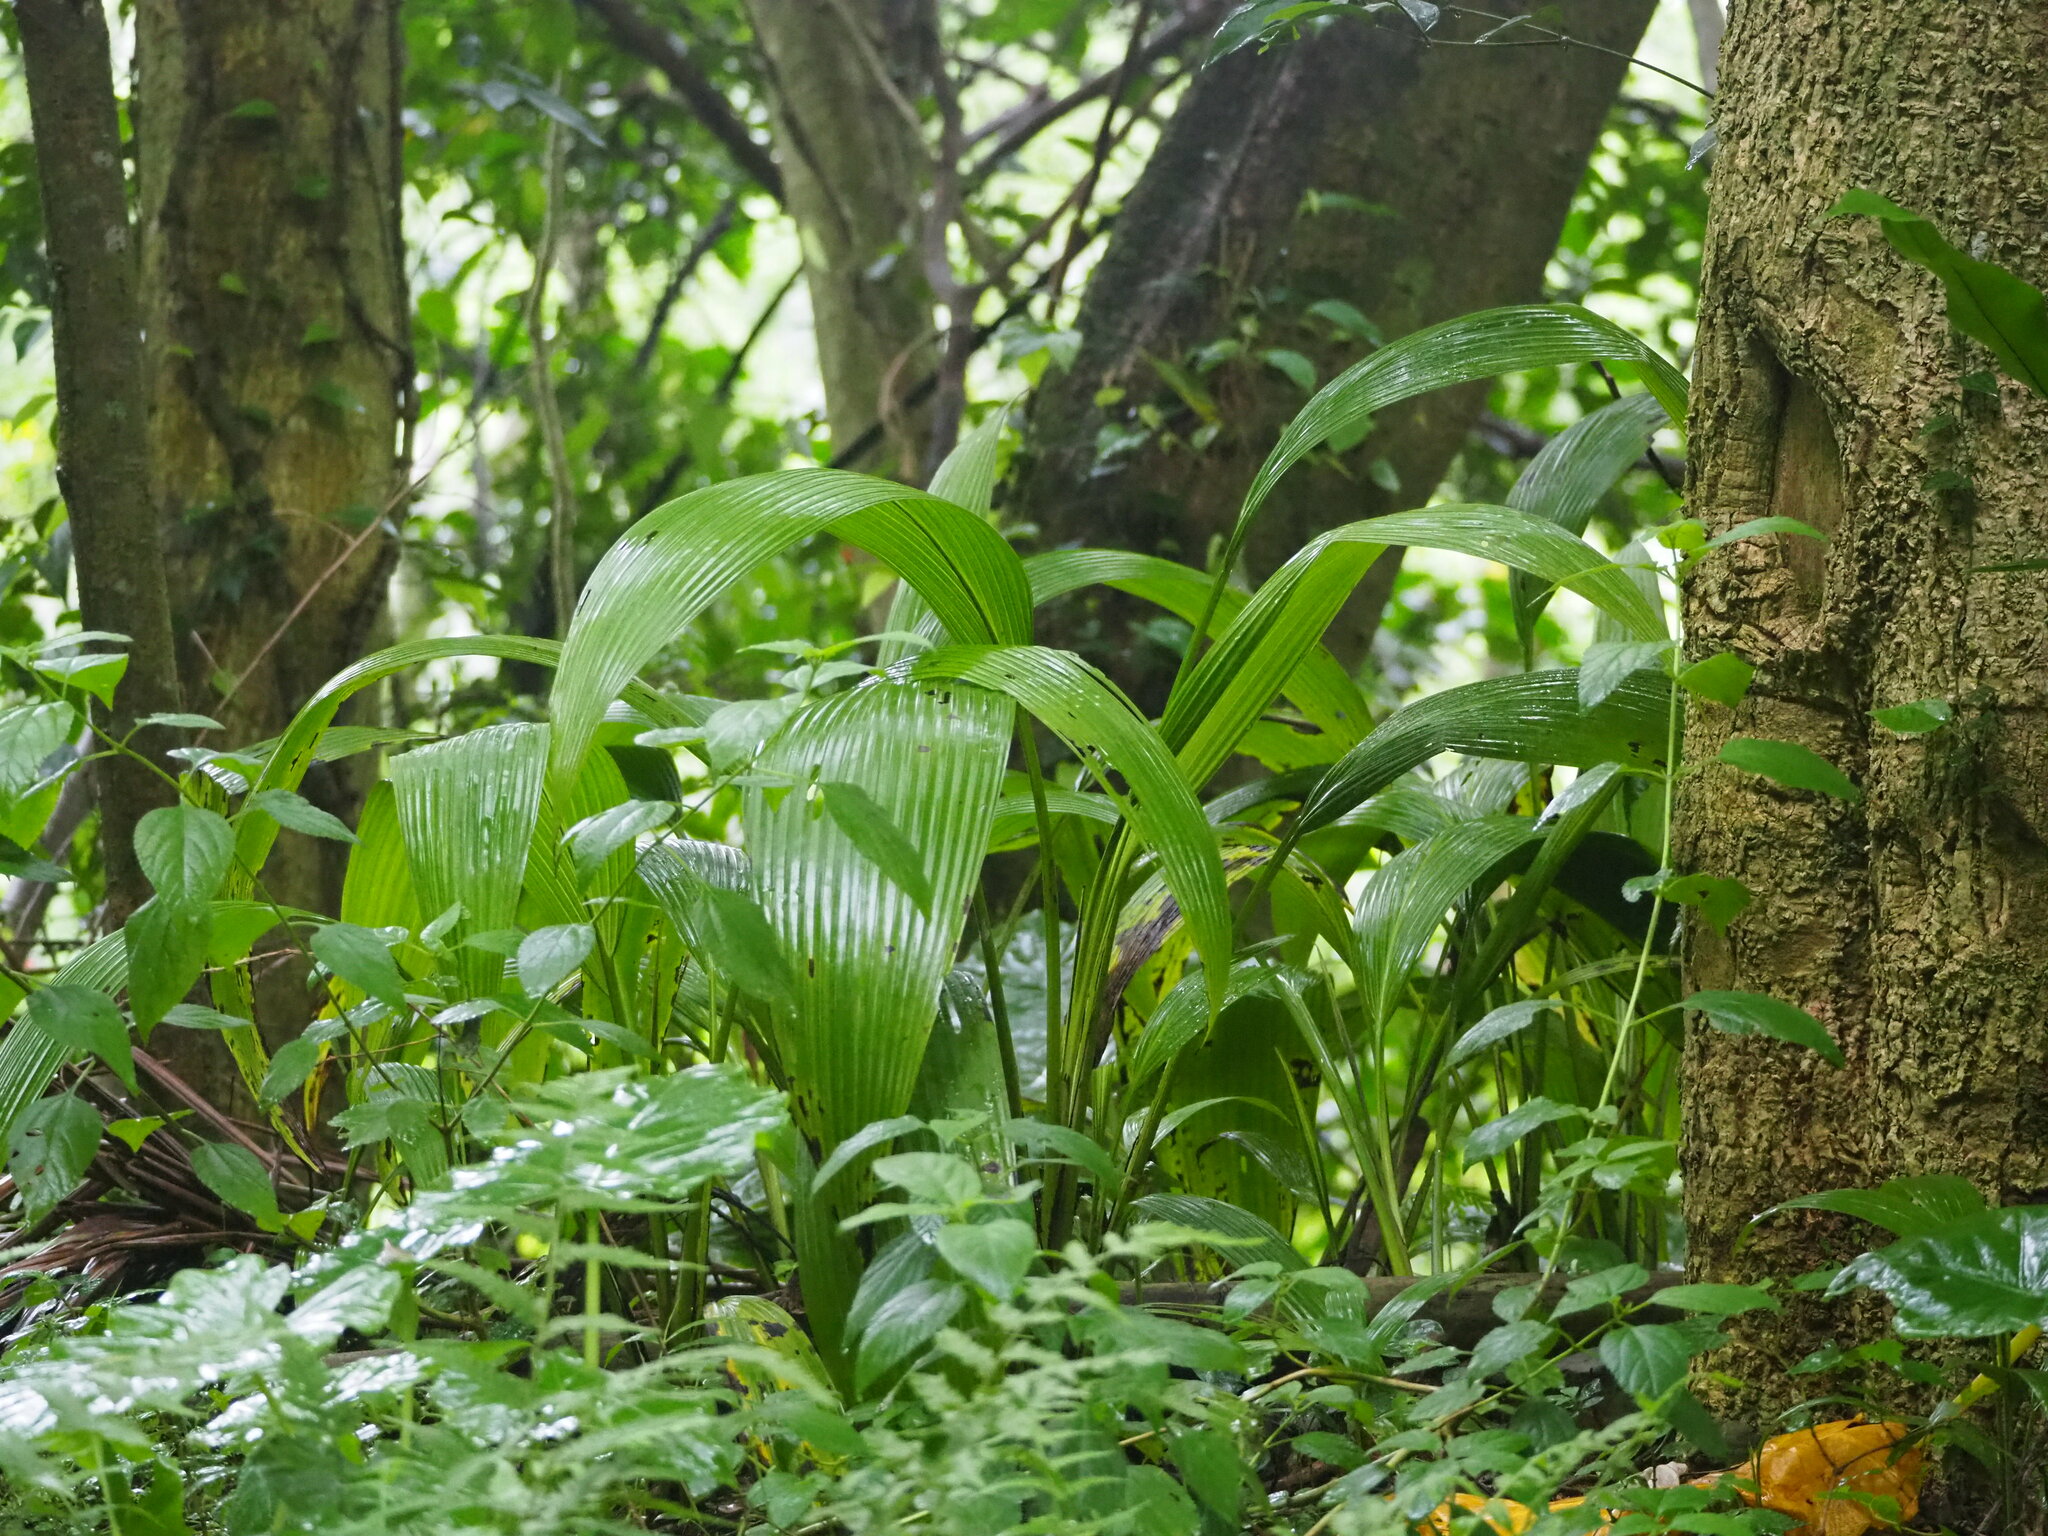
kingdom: Plantae
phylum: Tracheophyta
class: Liliopsida
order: Asparagales
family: Hypoxidaceae
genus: Curculigo
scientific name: Curculigo capitulata
